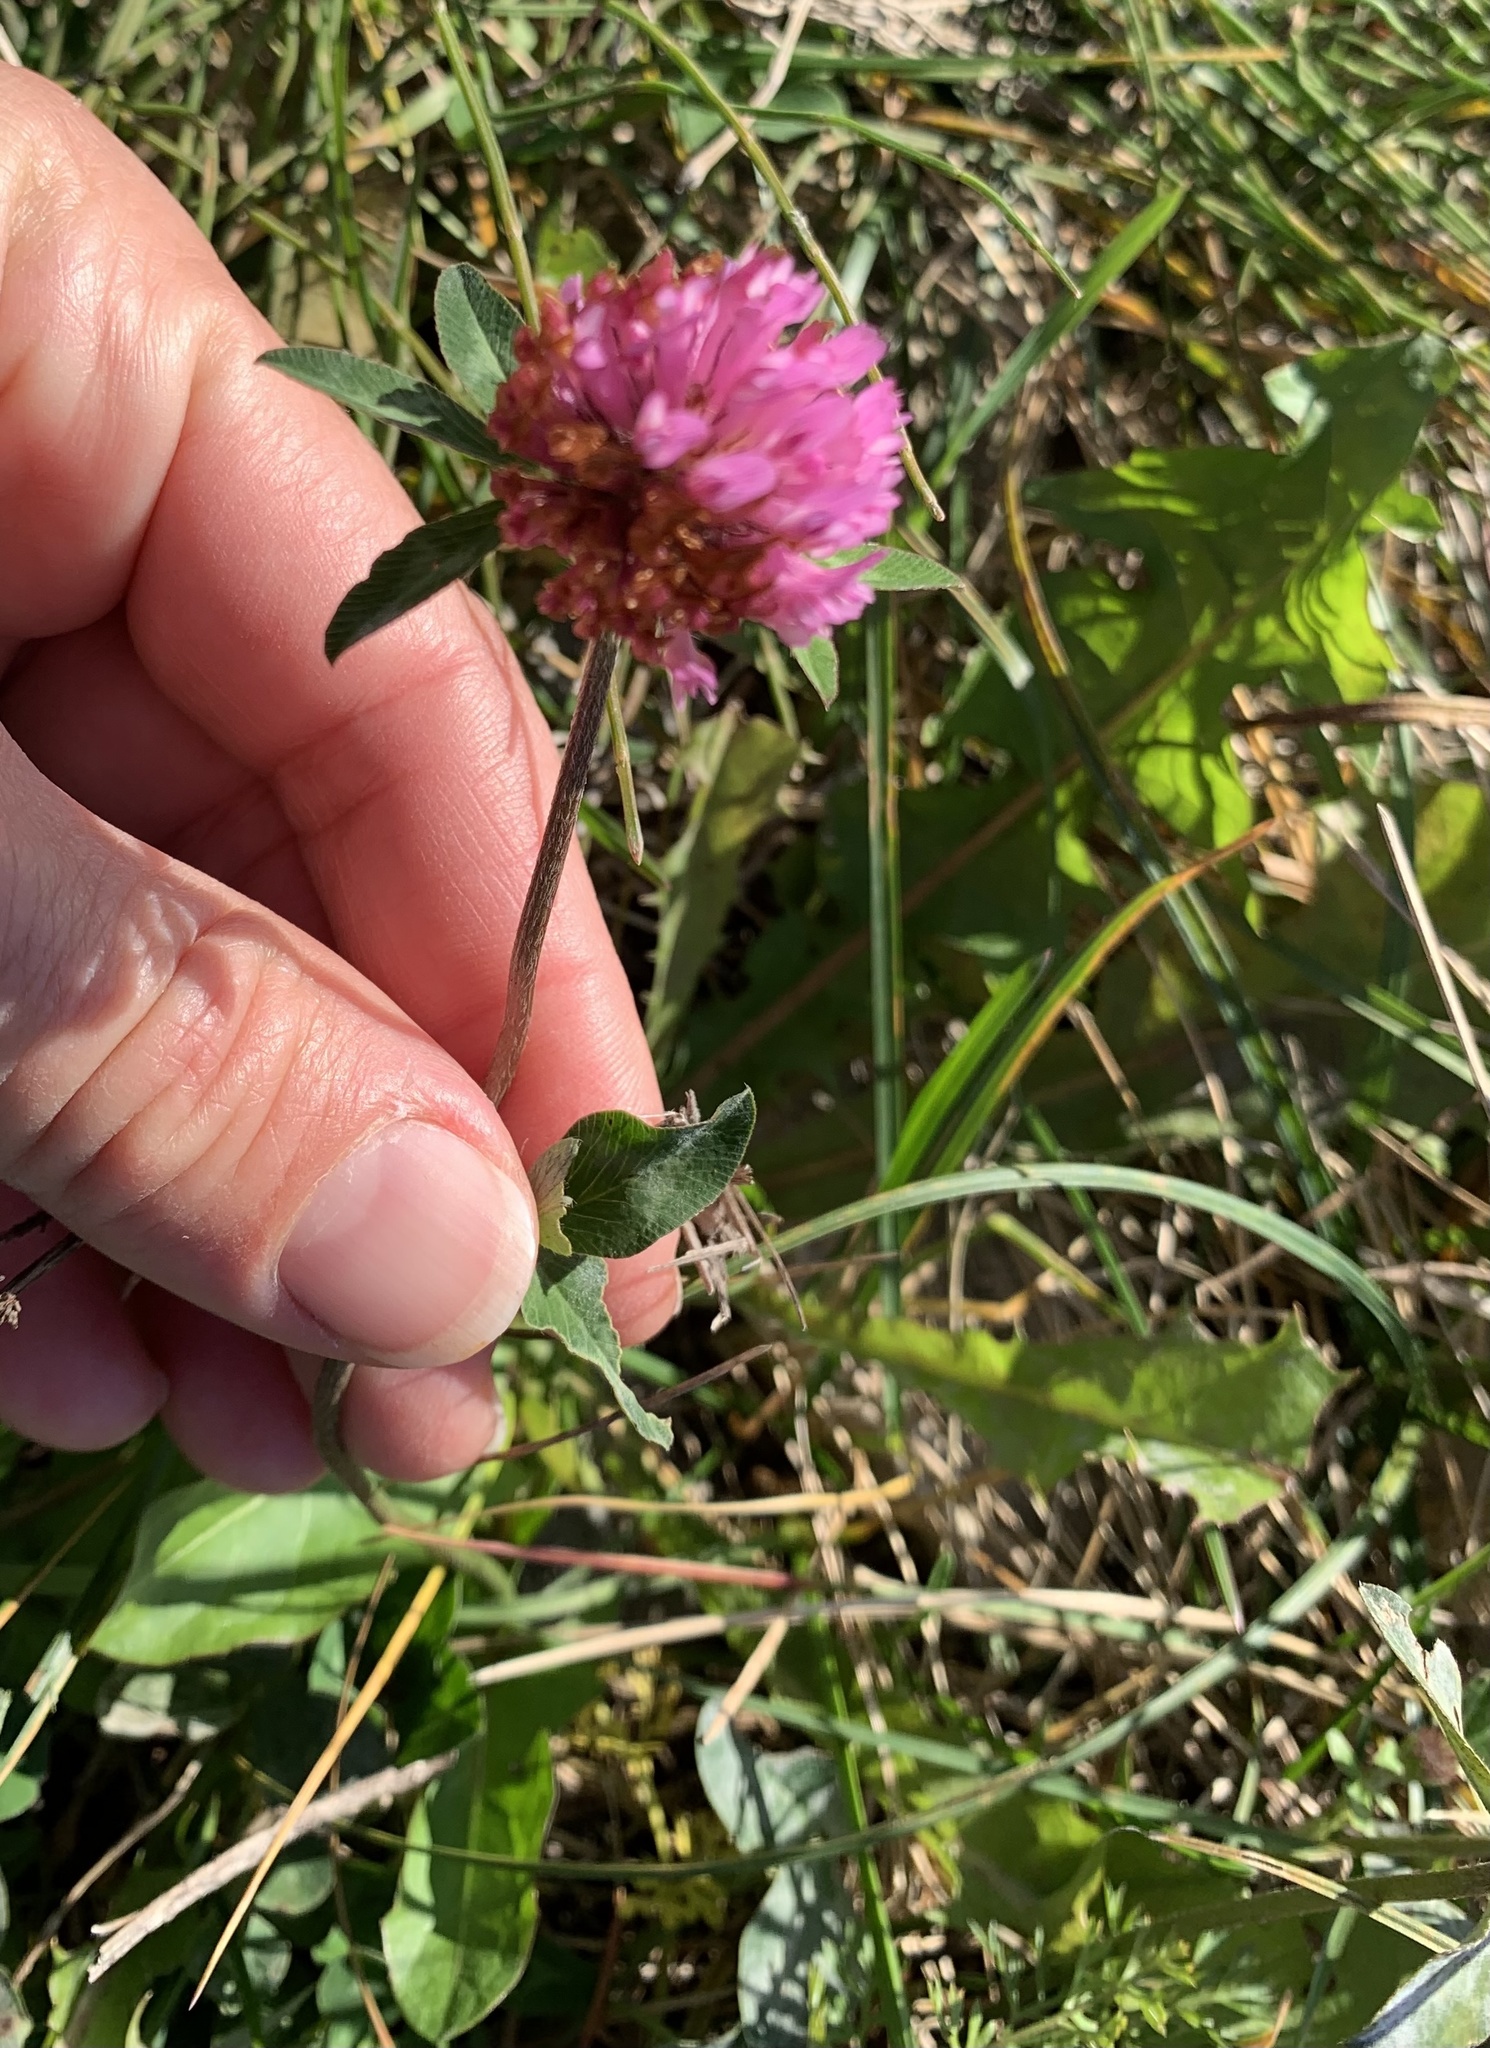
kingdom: Plantae
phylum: Tracheophyta
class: Magnoliopsida
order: Fabales
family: Fabaceae
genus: Trifolium
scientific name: Trifolium pratense
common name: Red clover
